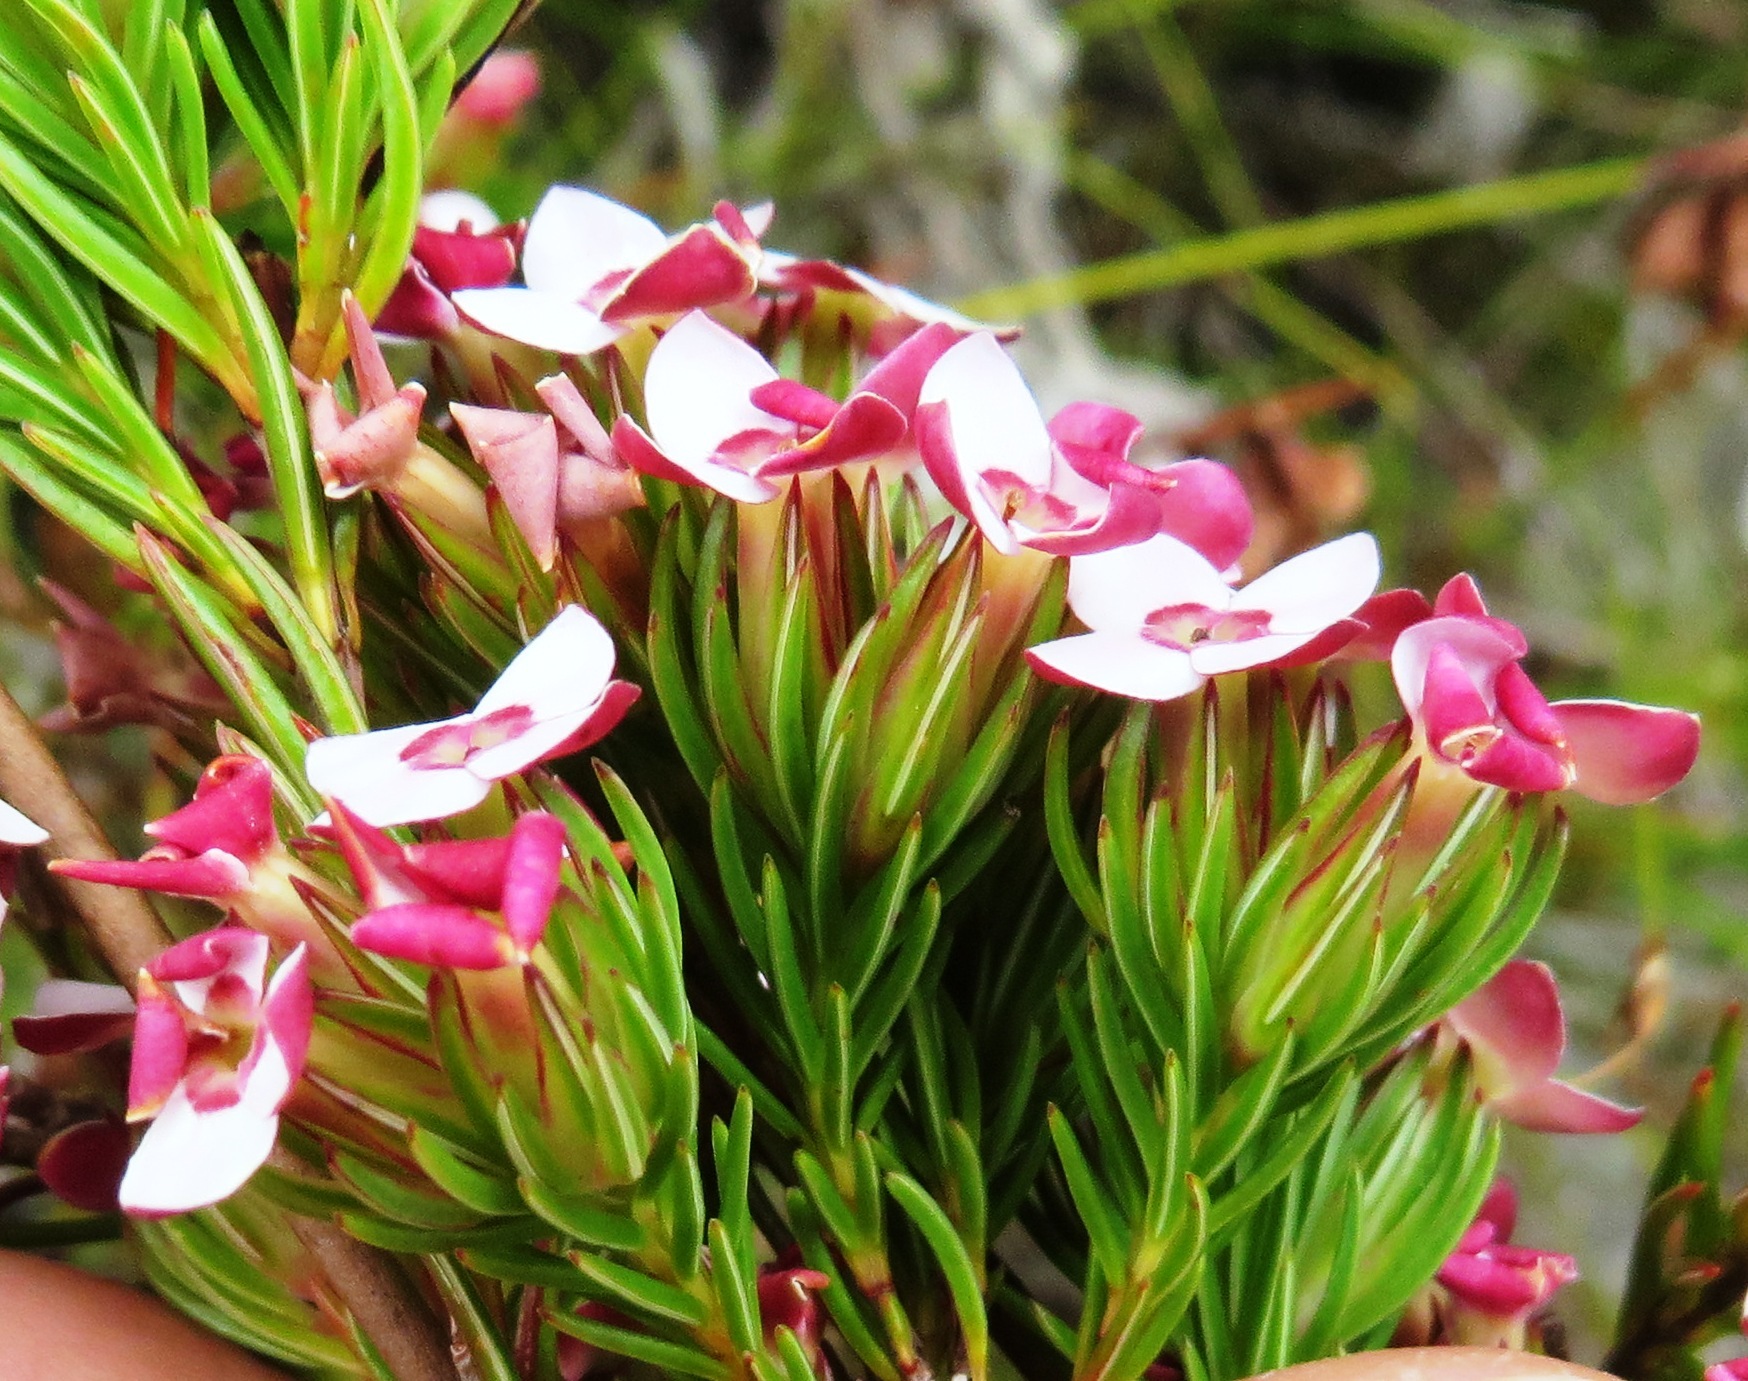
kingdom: Plantae
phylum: Tracheophyta
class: Magnoliopsida
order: Ericales
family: Ericaceae
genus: Erica
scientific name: Erica fastigiata
